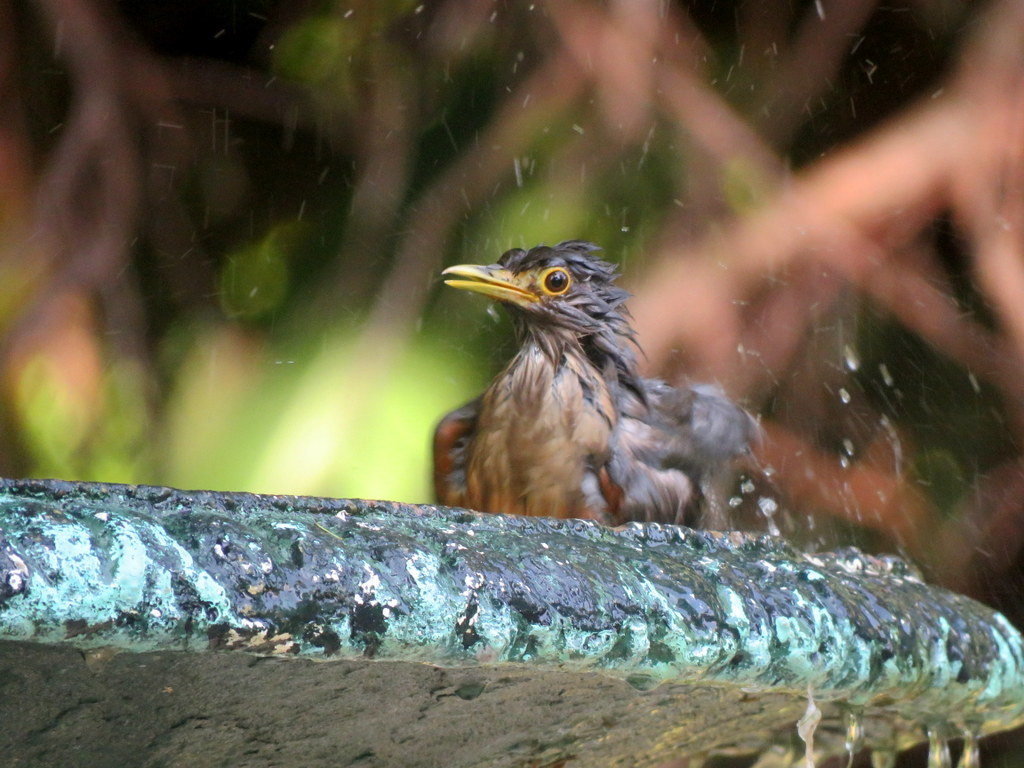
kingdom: Animalia
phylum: Chordata
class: Aves
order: Passeriformes
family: Turdidae
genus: Turdus
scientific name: Turdus rufiventris
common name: Rufous-bellied thrush
